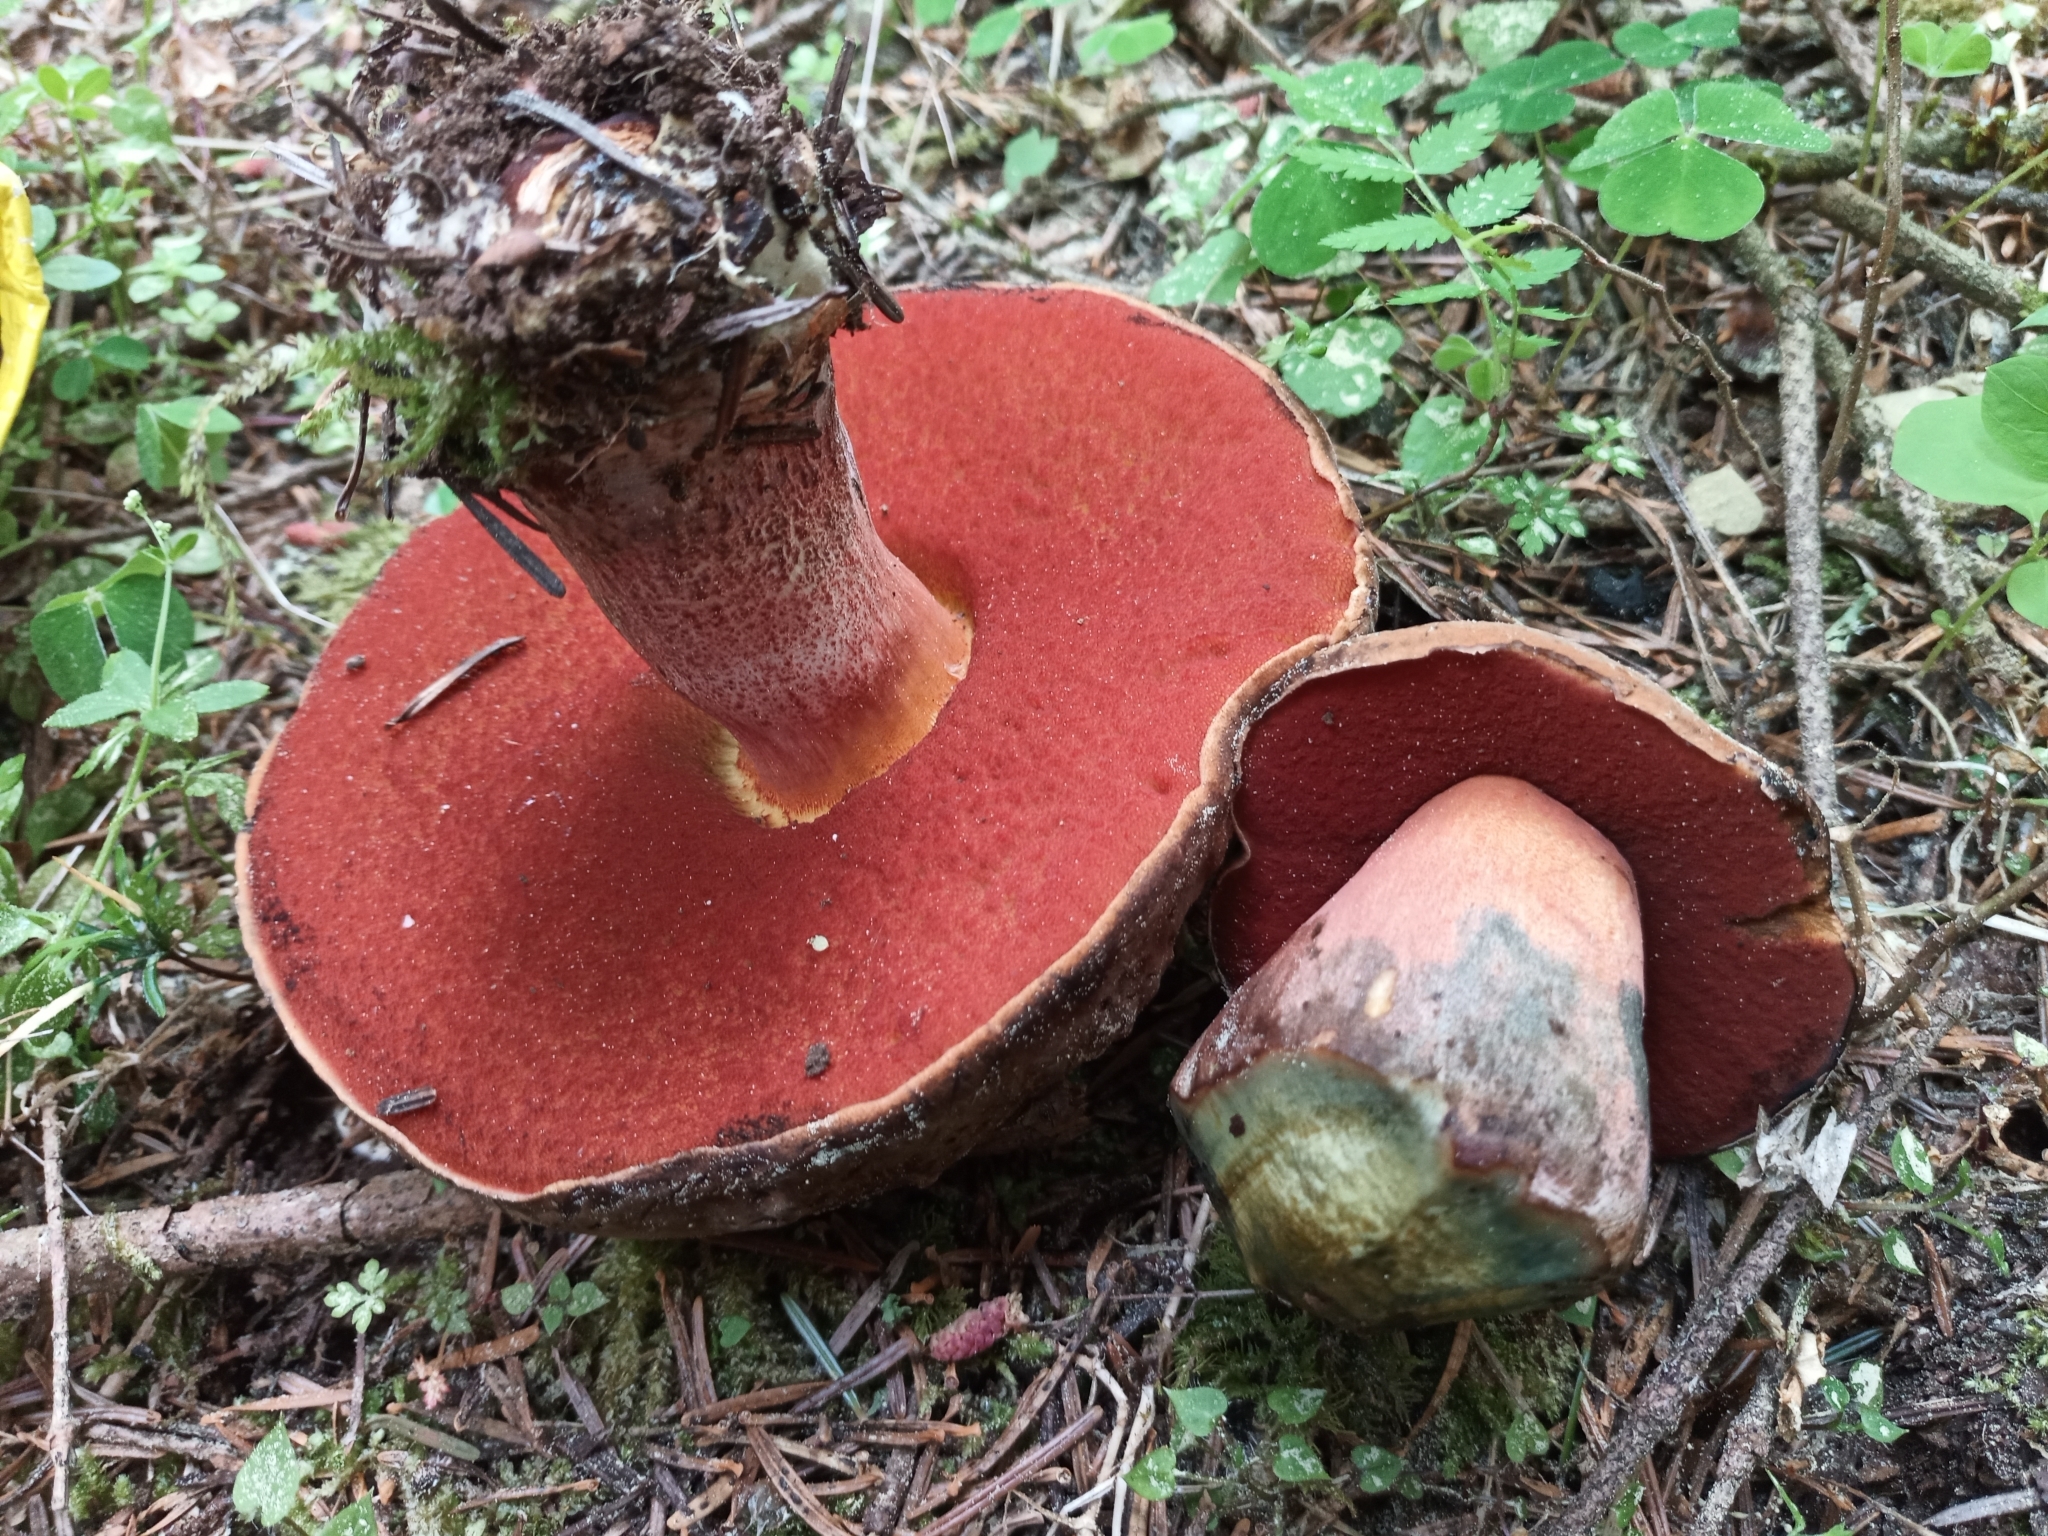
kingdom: Fungi
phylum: Basidiomycota
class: Agaricomycetes
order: Boletales
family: Boletaceae
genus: Neoboletus
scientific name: Neoboletus erythropus
